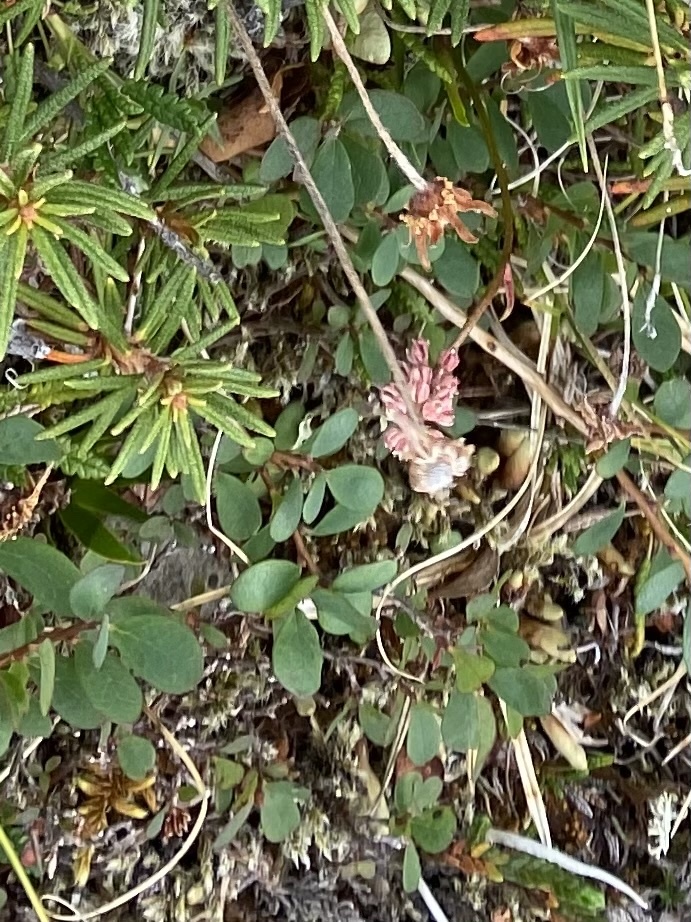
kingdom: Plantae
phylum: Tracheophyta
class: Magnoliopsida
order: Ericales
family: Ericaceae
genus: Vaccinium
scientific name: Vaccinium uliginosum
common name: Bog bilberry
